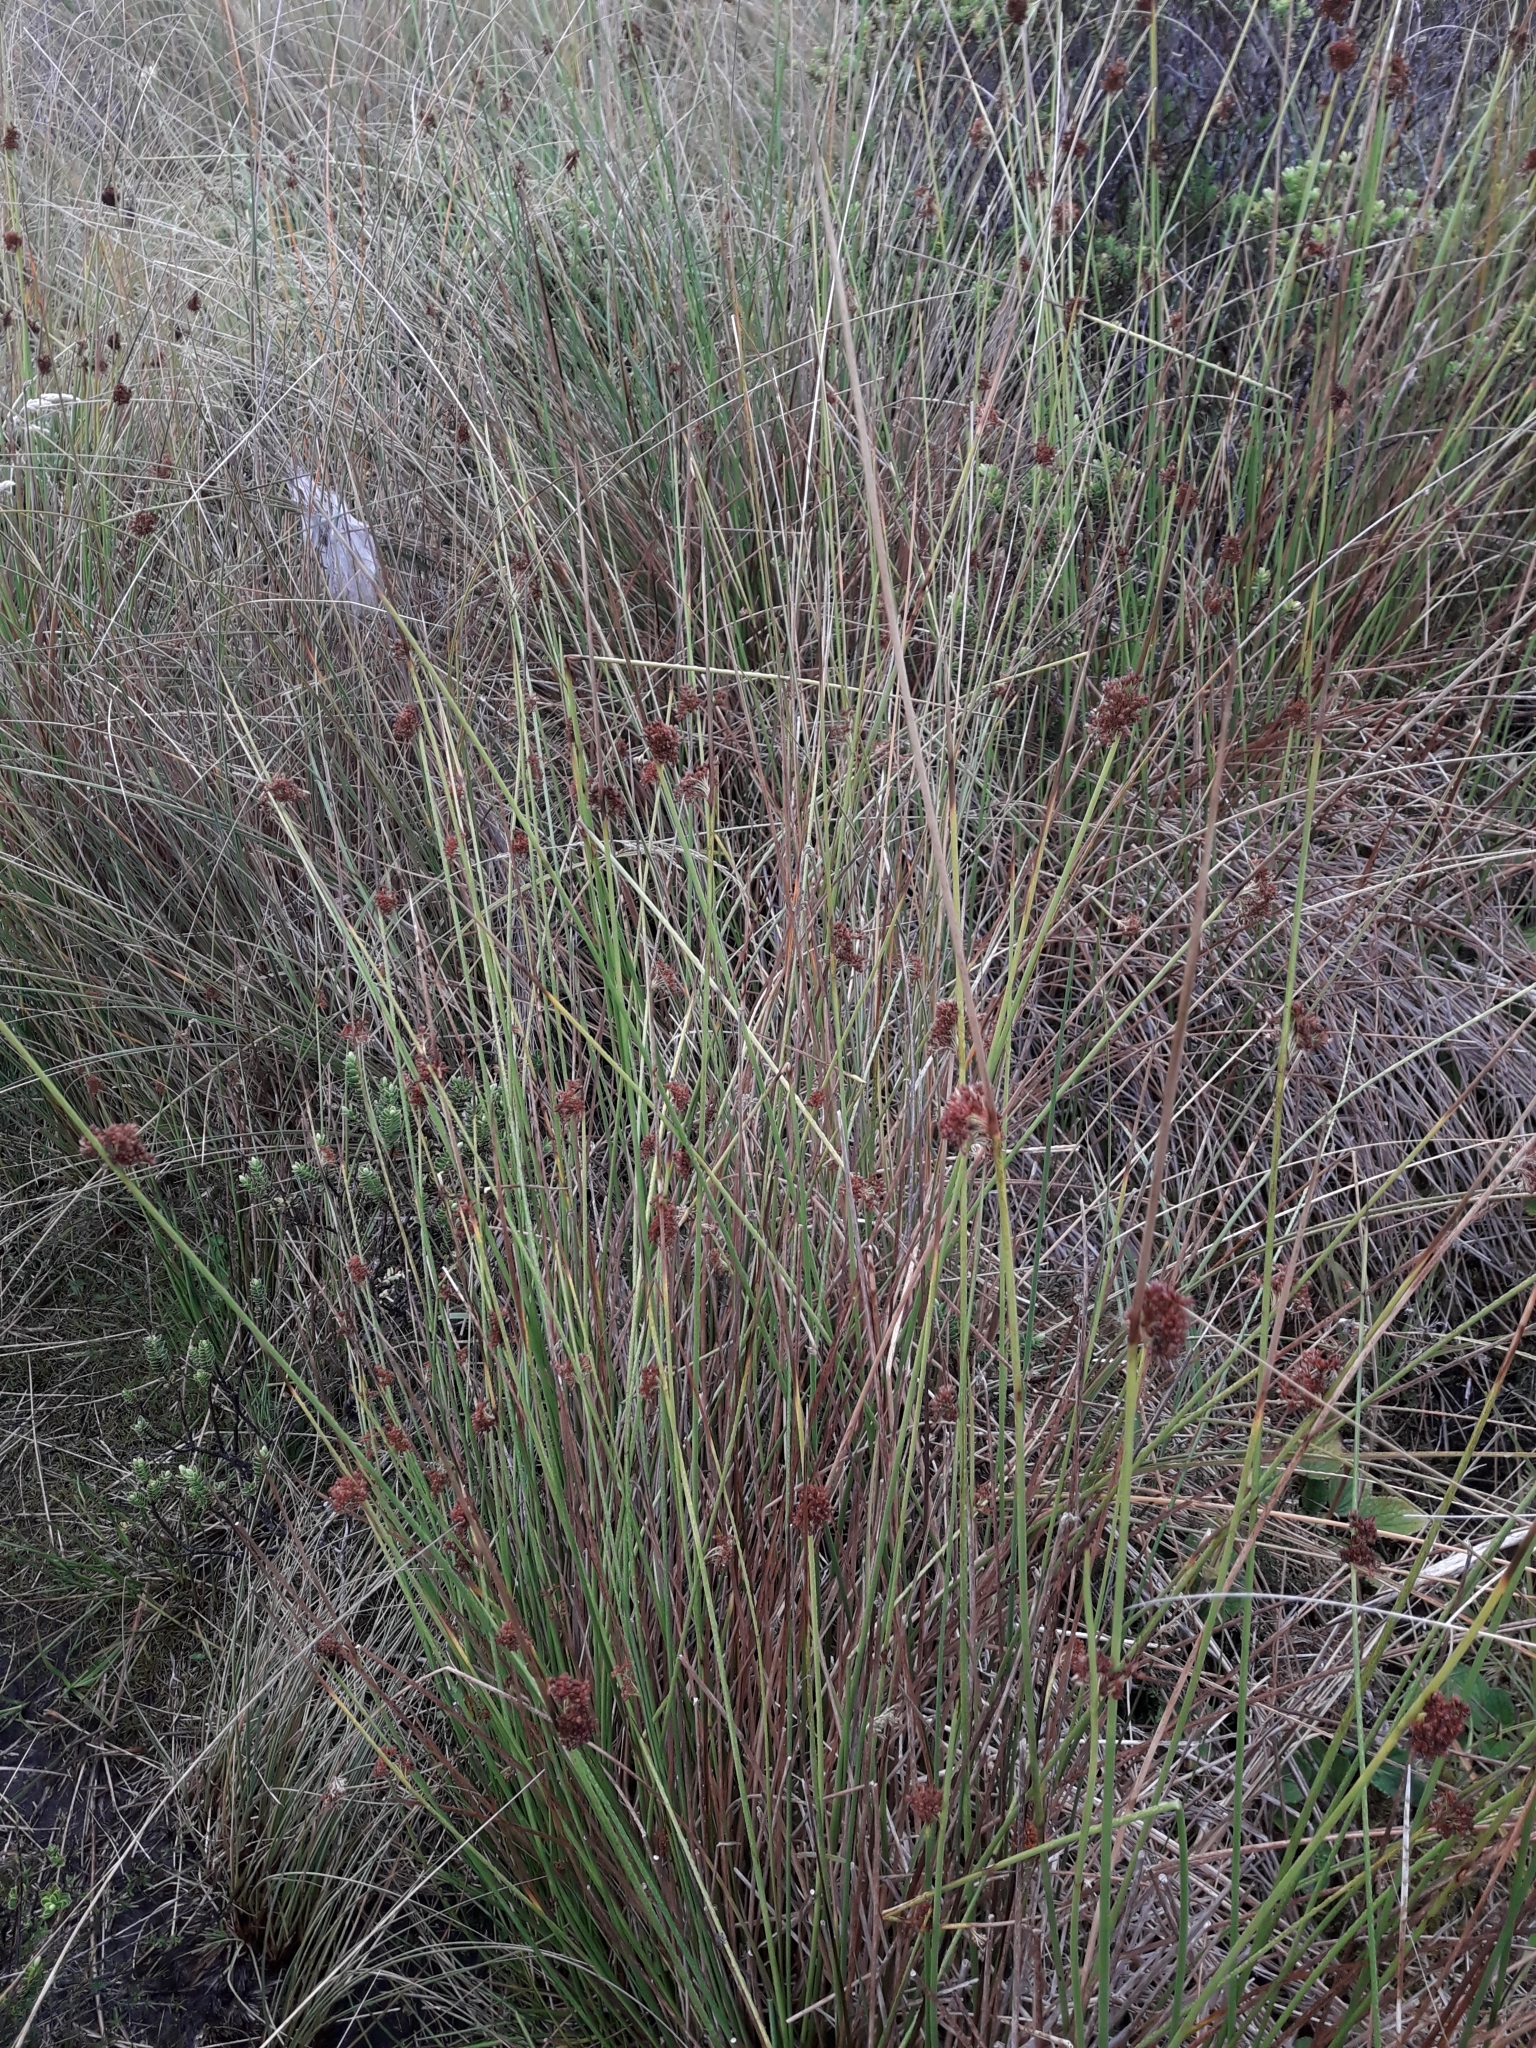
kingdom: Plantae
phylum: Tracheophyta
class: Liliopsida
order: Poales
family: Juncaceae
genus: Juncus
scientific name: Juncus effusus
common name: Soft rush
